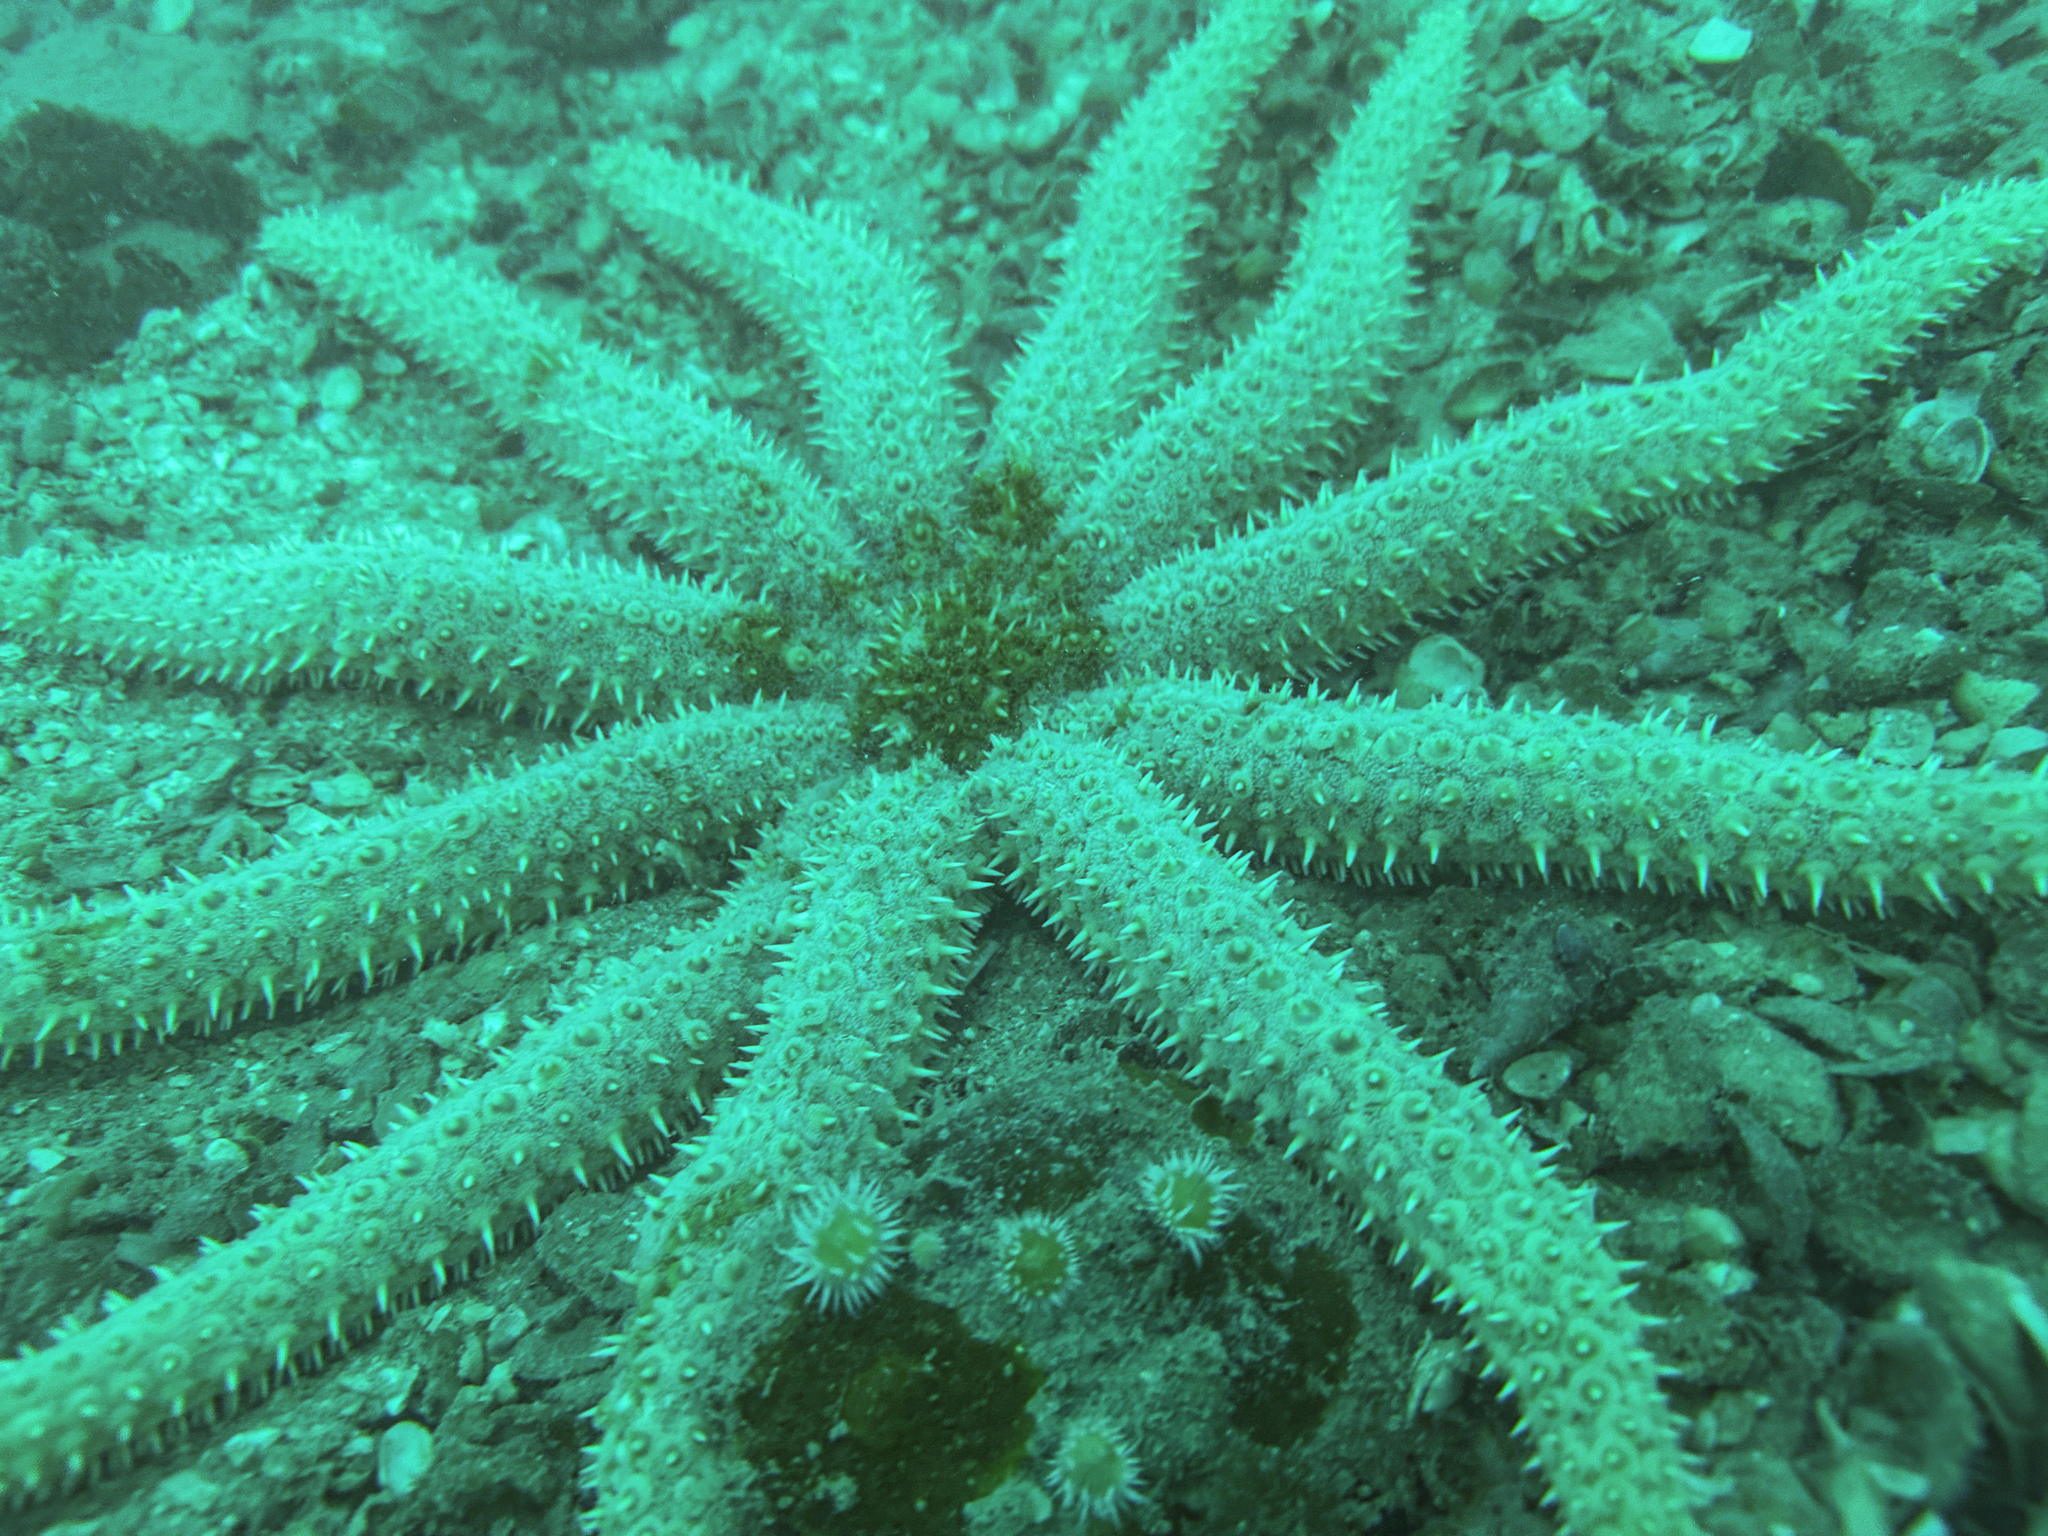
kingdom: Animalia
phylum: Echinodermata
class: Asteroidea
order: Forcipulatida
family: Asteriidae
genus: Coscinasterias
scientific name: Coscinasterias muricata
